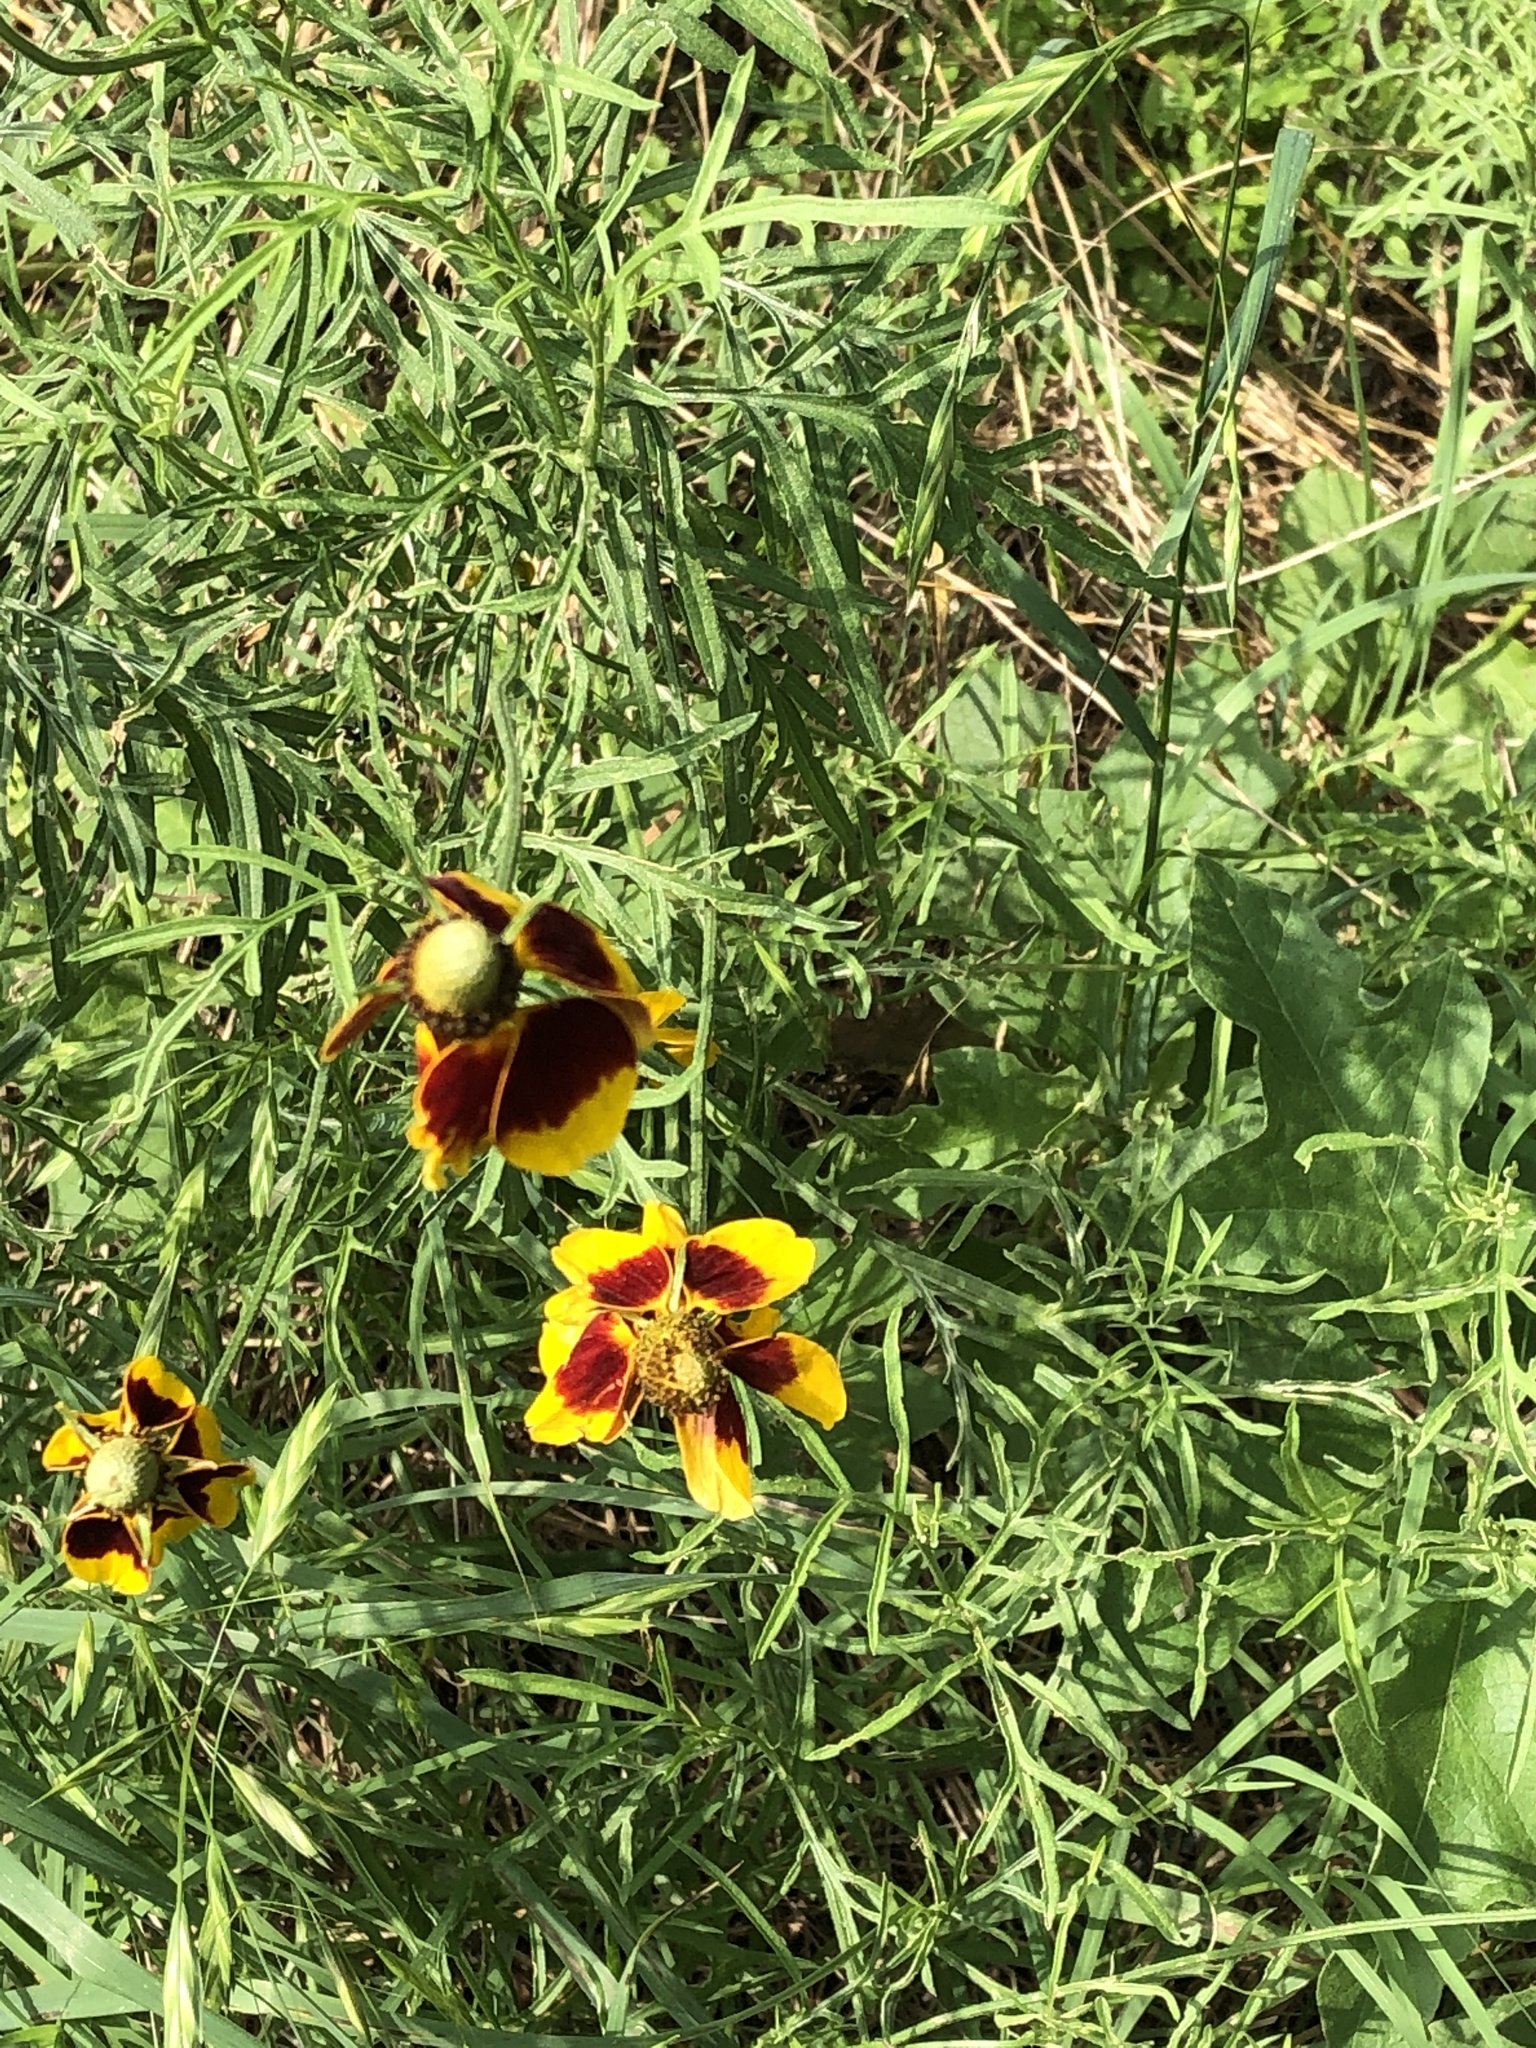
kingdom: Plantae
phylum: Tracheophyta
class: Magnoliopsida
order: Asterales
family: Asteraceae
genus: Ratibida
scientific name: Ratibida columnifera
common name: Prairie coneflower
